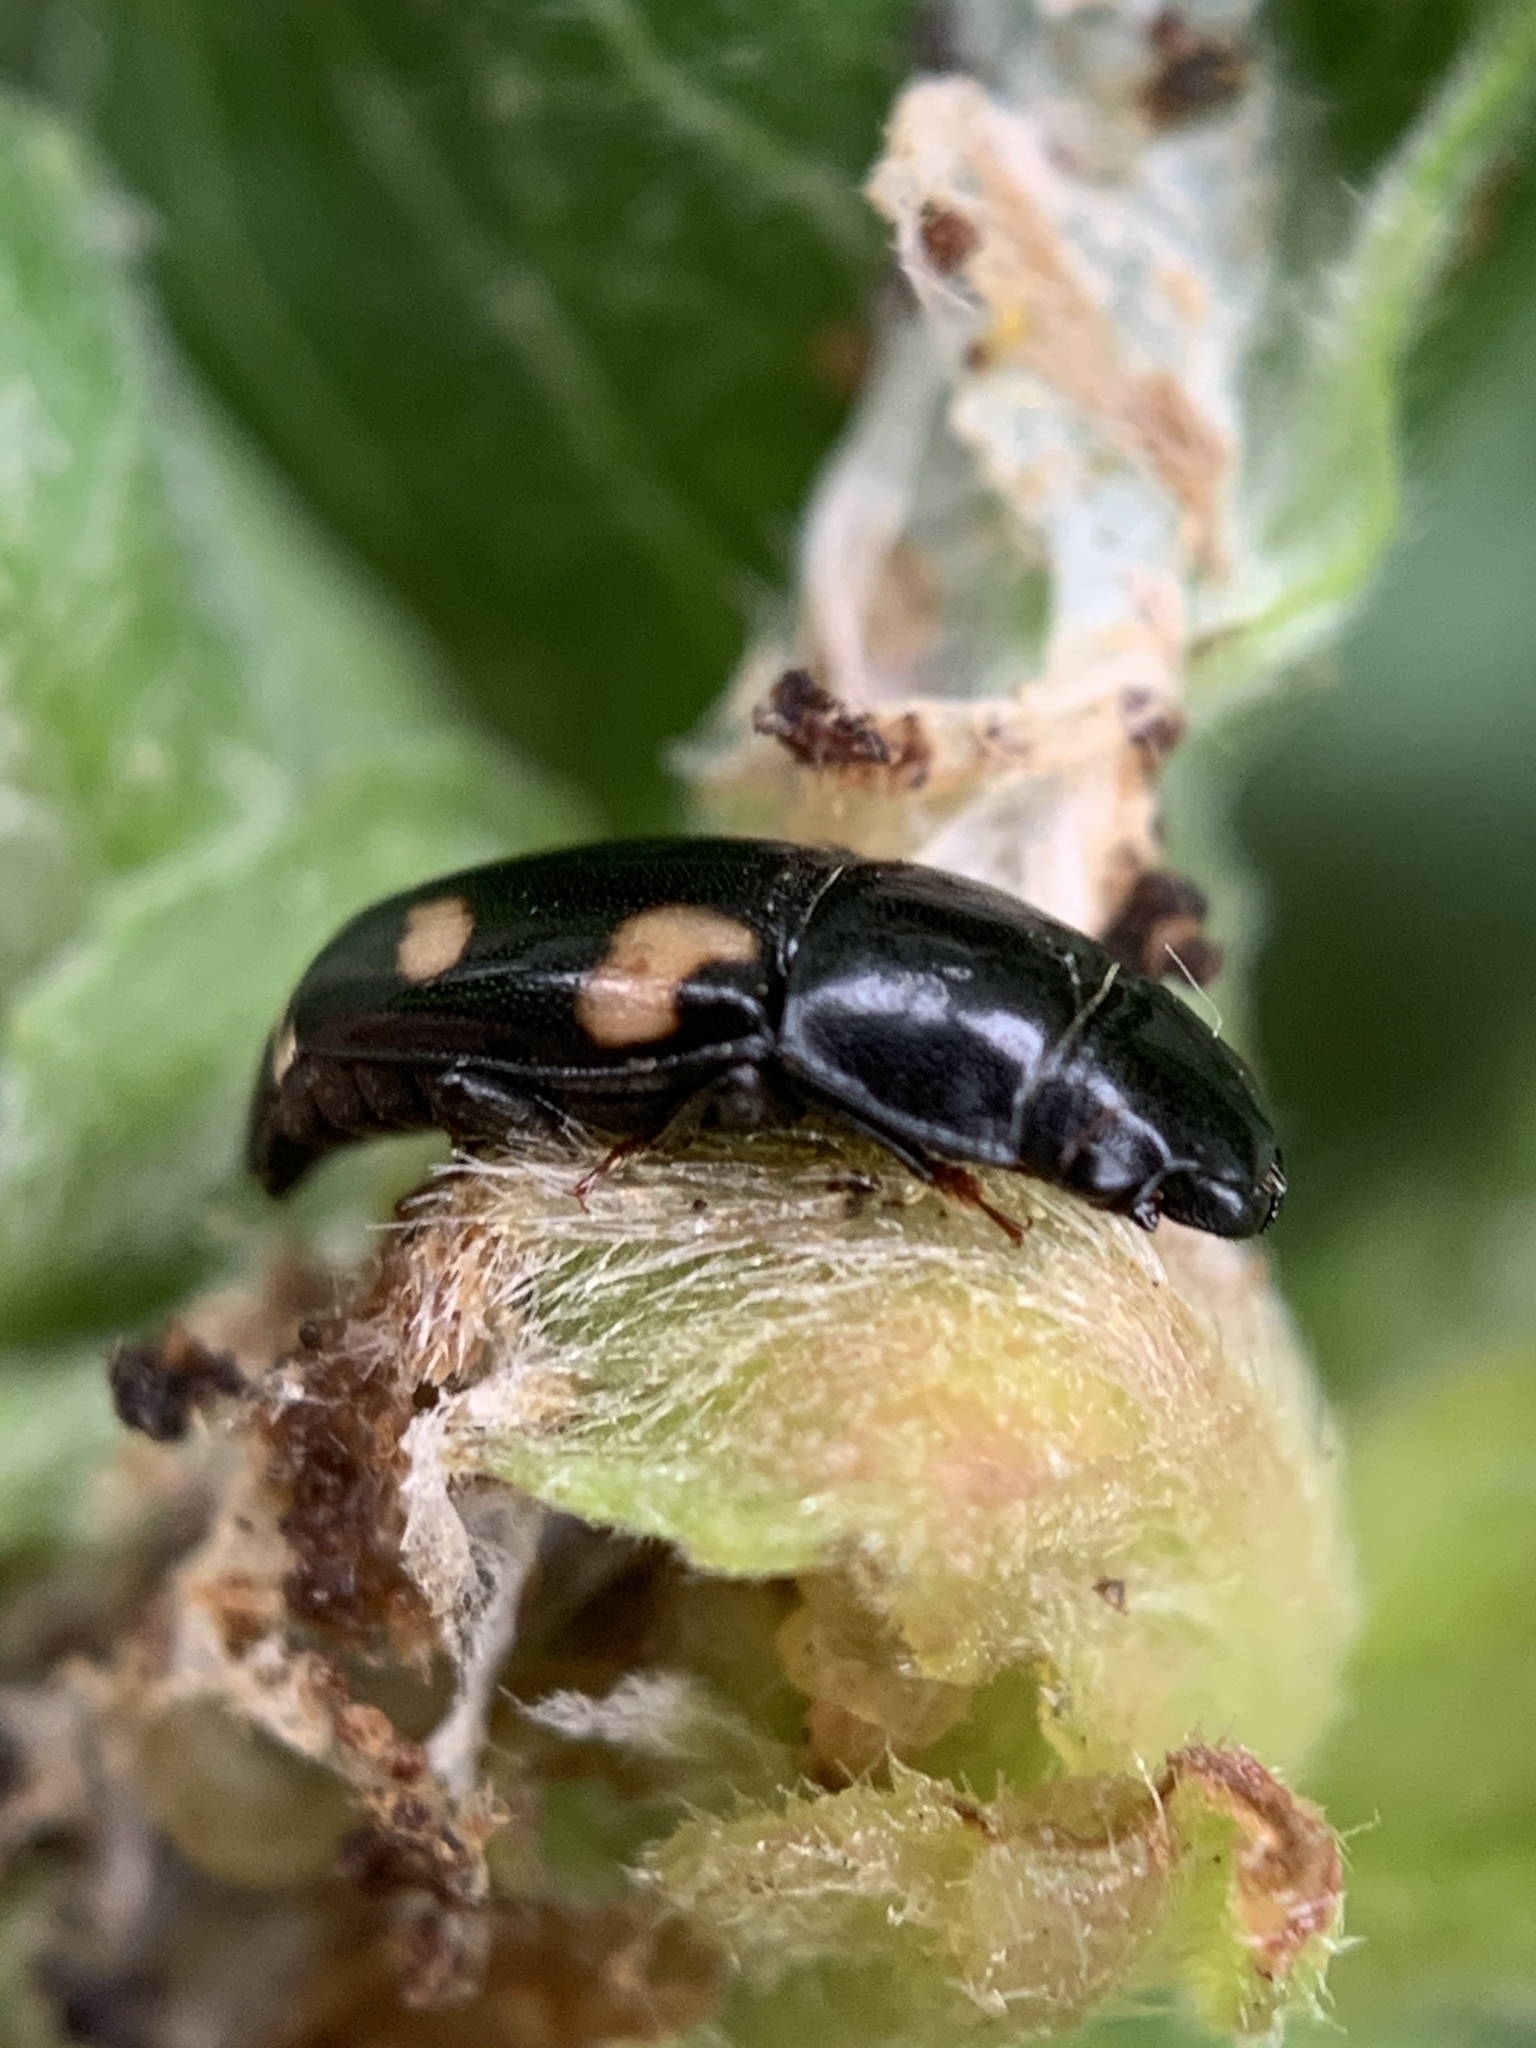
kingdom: Animalia
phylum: Arthropoda
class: Insecta
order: Coleoptera
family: Nitidulidae
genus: Glischrochilus
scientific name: Glischrochilus quadrisignatus
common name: Picnic beetle
